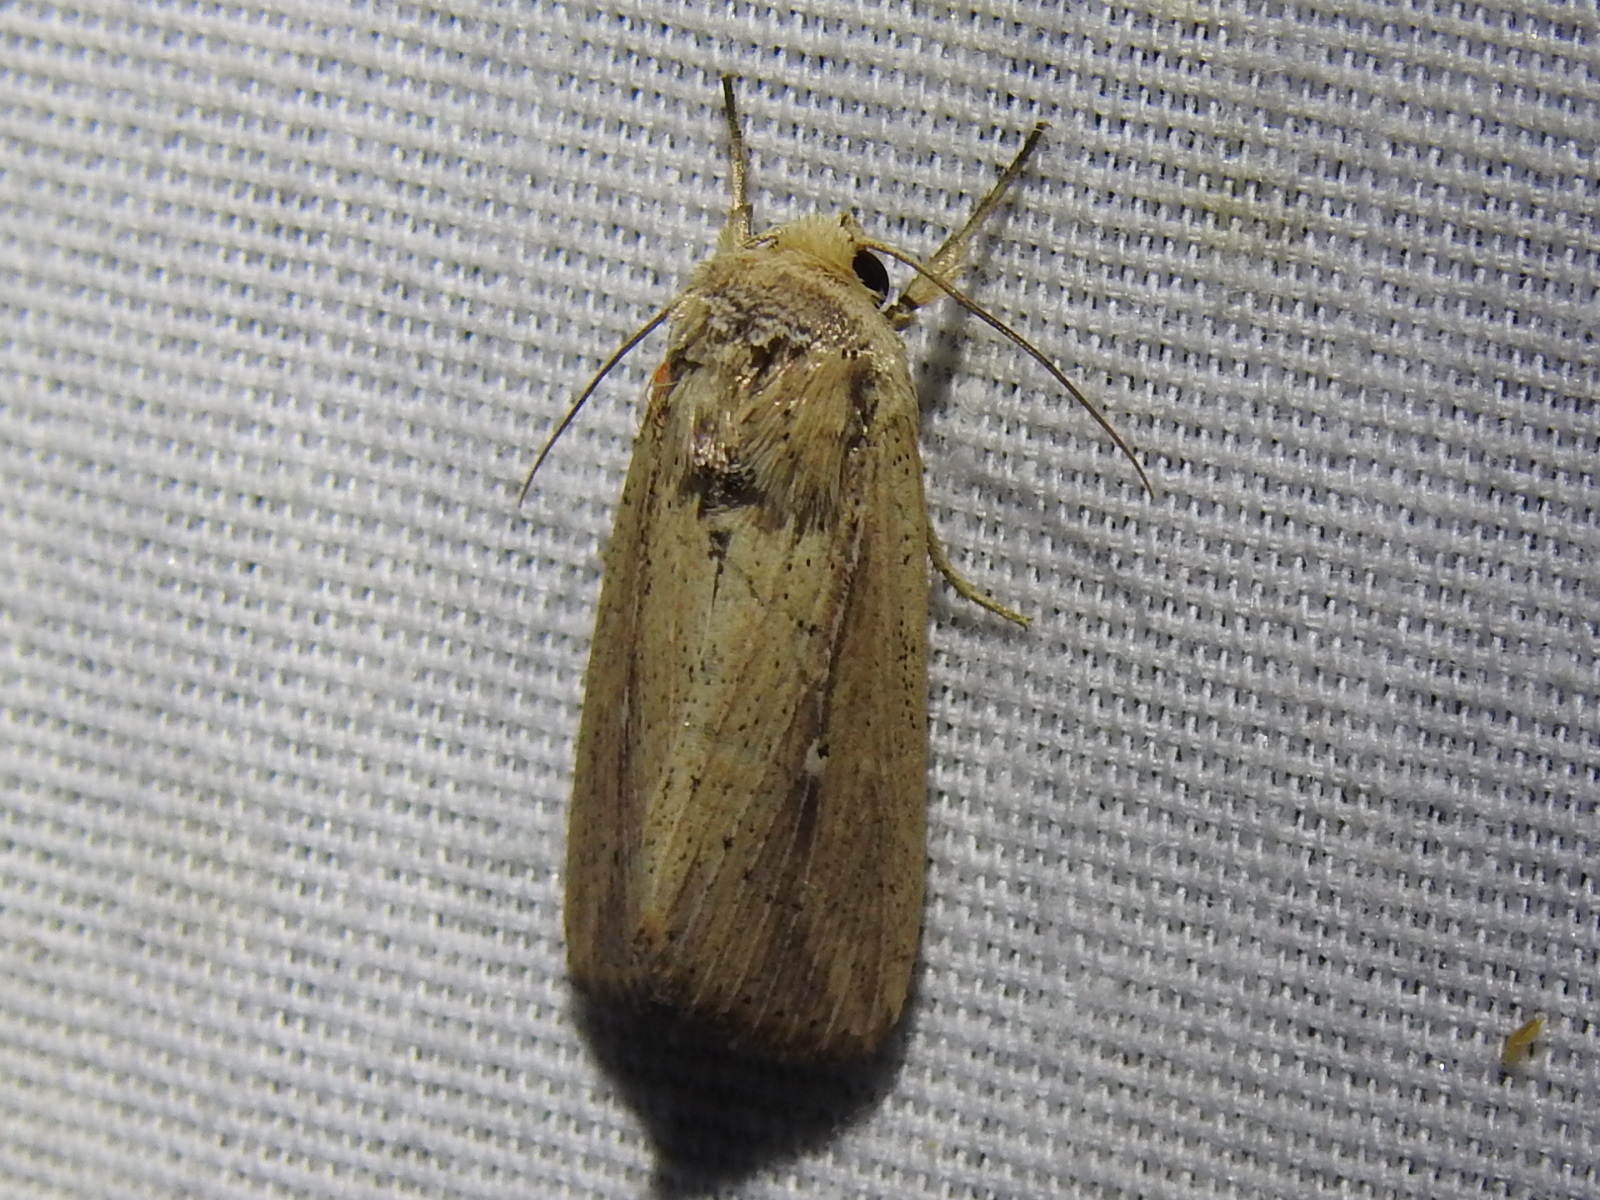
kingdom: Animalia
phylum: Arthropoda
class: Insecta
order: Lepidoptera
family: Noctuidae
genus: Leucania
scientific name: Leucania incognita
